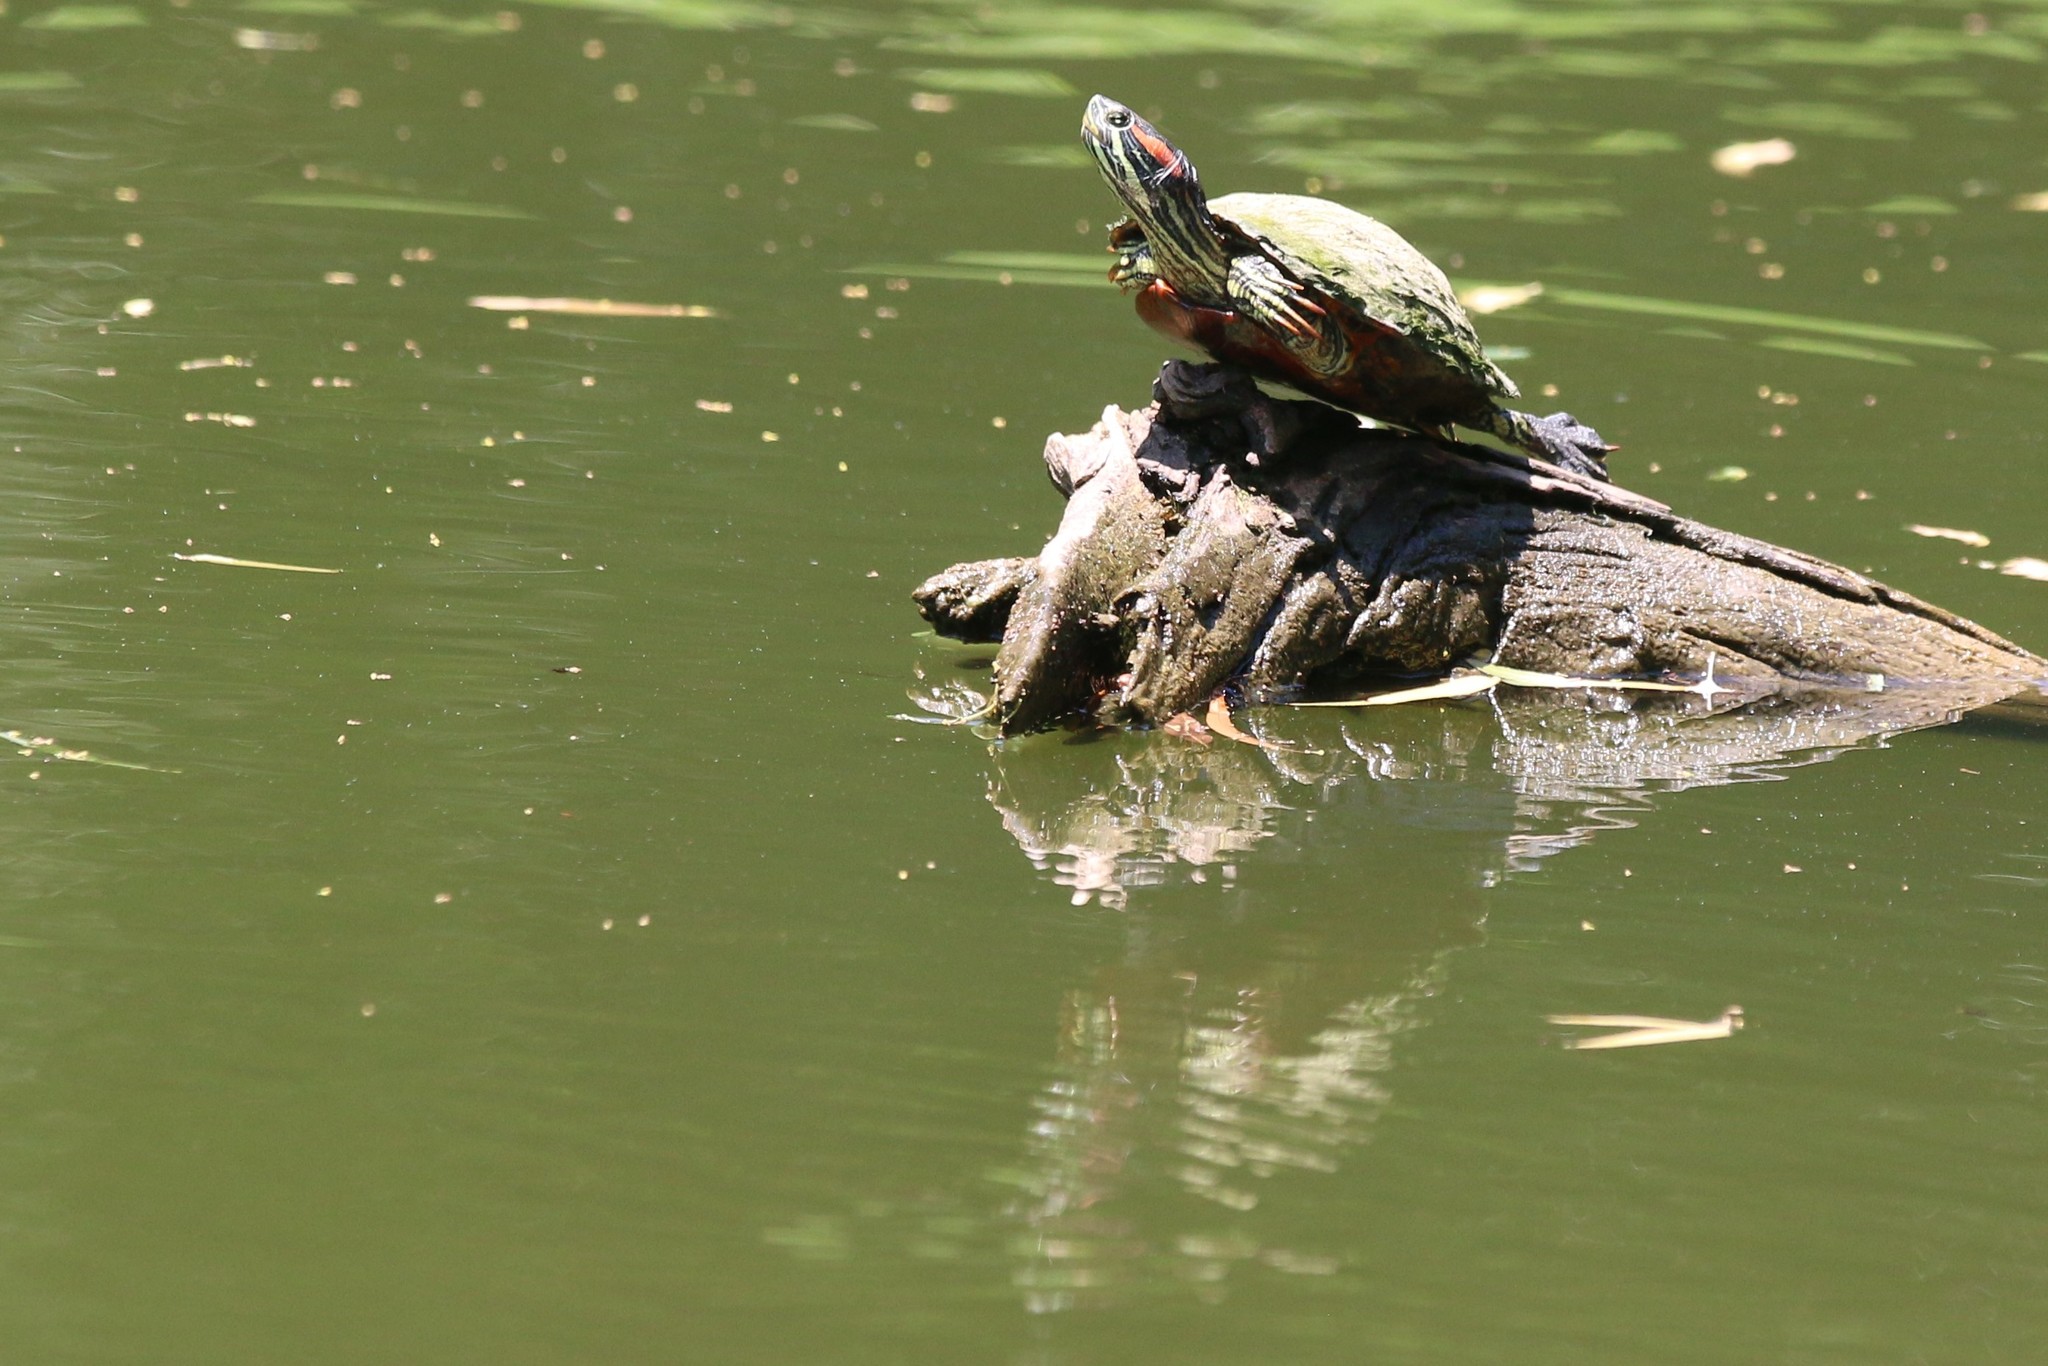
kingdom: Animalia
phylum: Chordata
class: Testudines
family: Emydidae
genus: Trachemys
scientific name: Trachemys scripta
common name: Slider
